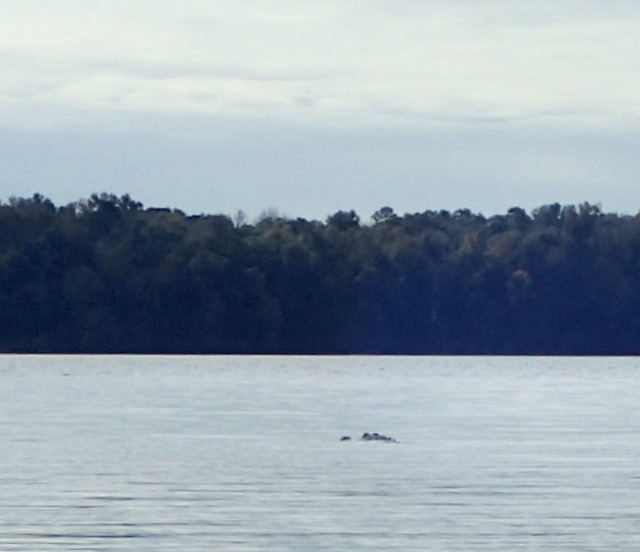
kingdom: Animalia
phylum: Chordata
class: Crocodylia
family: Alligatoridae
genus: Alligator
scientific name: Alligator mississippiensis
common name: American alligator
